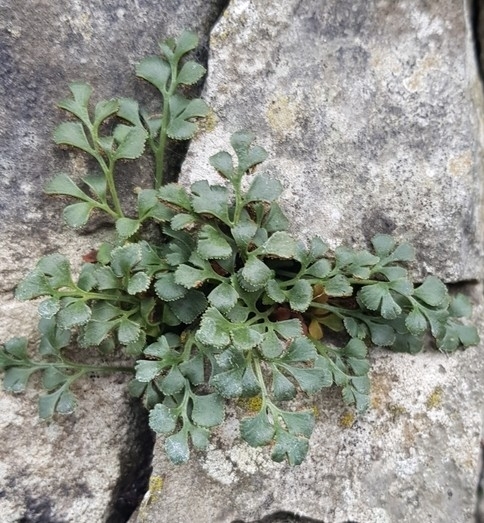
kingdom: Plantae
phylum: Tracheophyta
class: Polypodiopsida
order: Polypodiales
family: Aspleniaceae
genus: Asplenium
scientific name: Asplenium ruta-muraria
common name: Wall-rue
